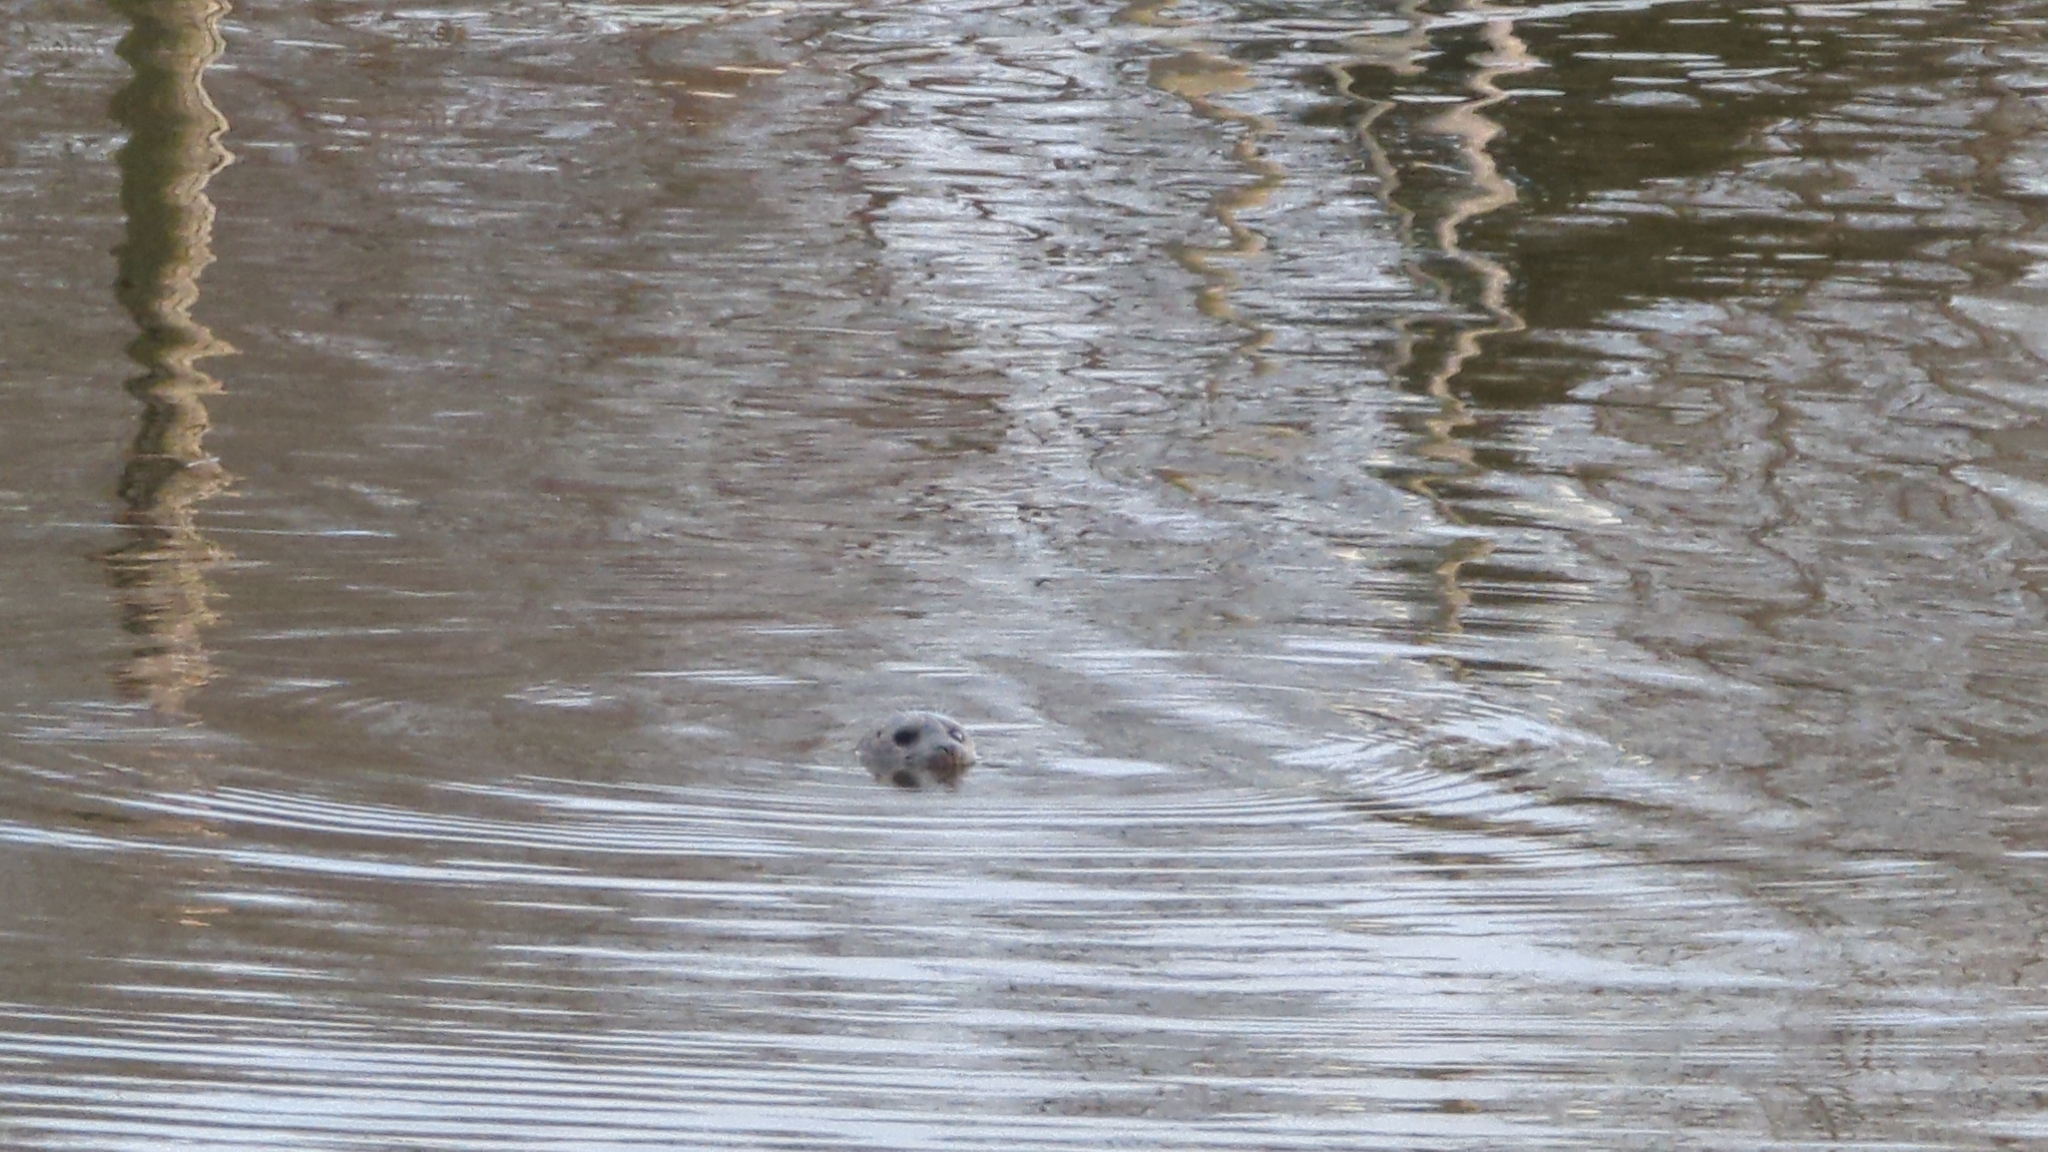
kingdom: Animalia
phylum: Chordata
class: Mammalia
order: Carnivora
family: Phocidae
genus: Phoca
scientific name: Phoca vitulina
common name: Harbor seal
